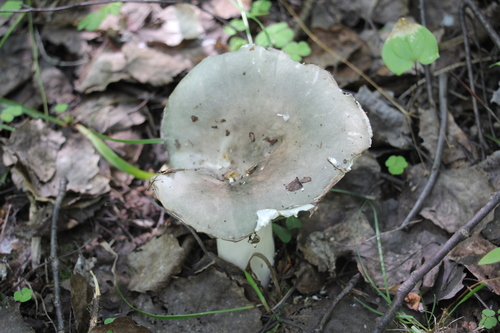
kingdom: Fungi
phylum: Basidiomycota
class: Agaricomycetes
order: Russulales
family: Russulaceae
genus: Russula
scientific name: Russula vesca
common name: Bare-toothed russula
